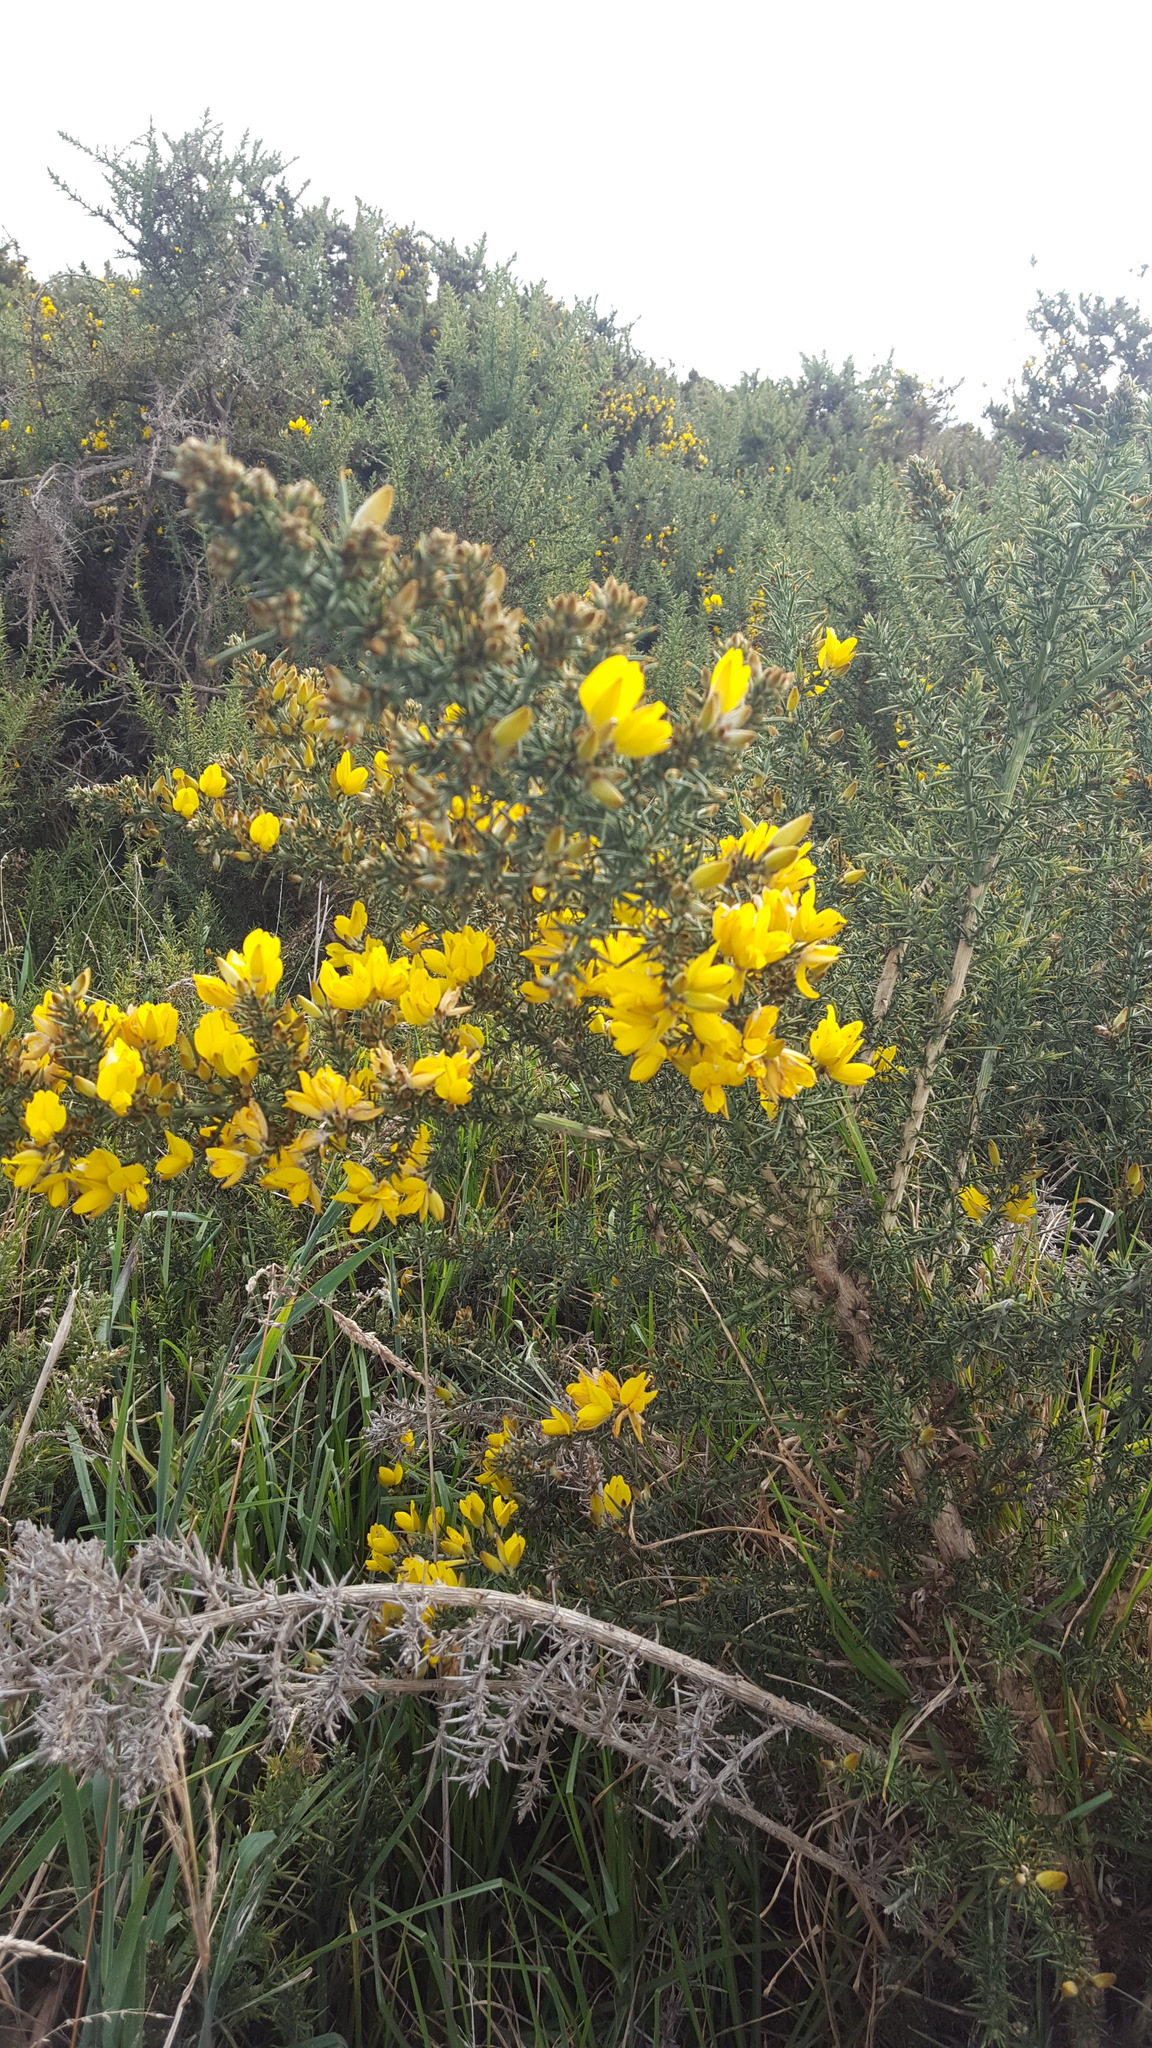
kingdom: Plantae
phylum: Tracheophyta
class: Magnoliopsida
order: Fabales
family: Fabaceae
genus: Ulex
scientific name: Ulex europaeus
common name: Common gorse
